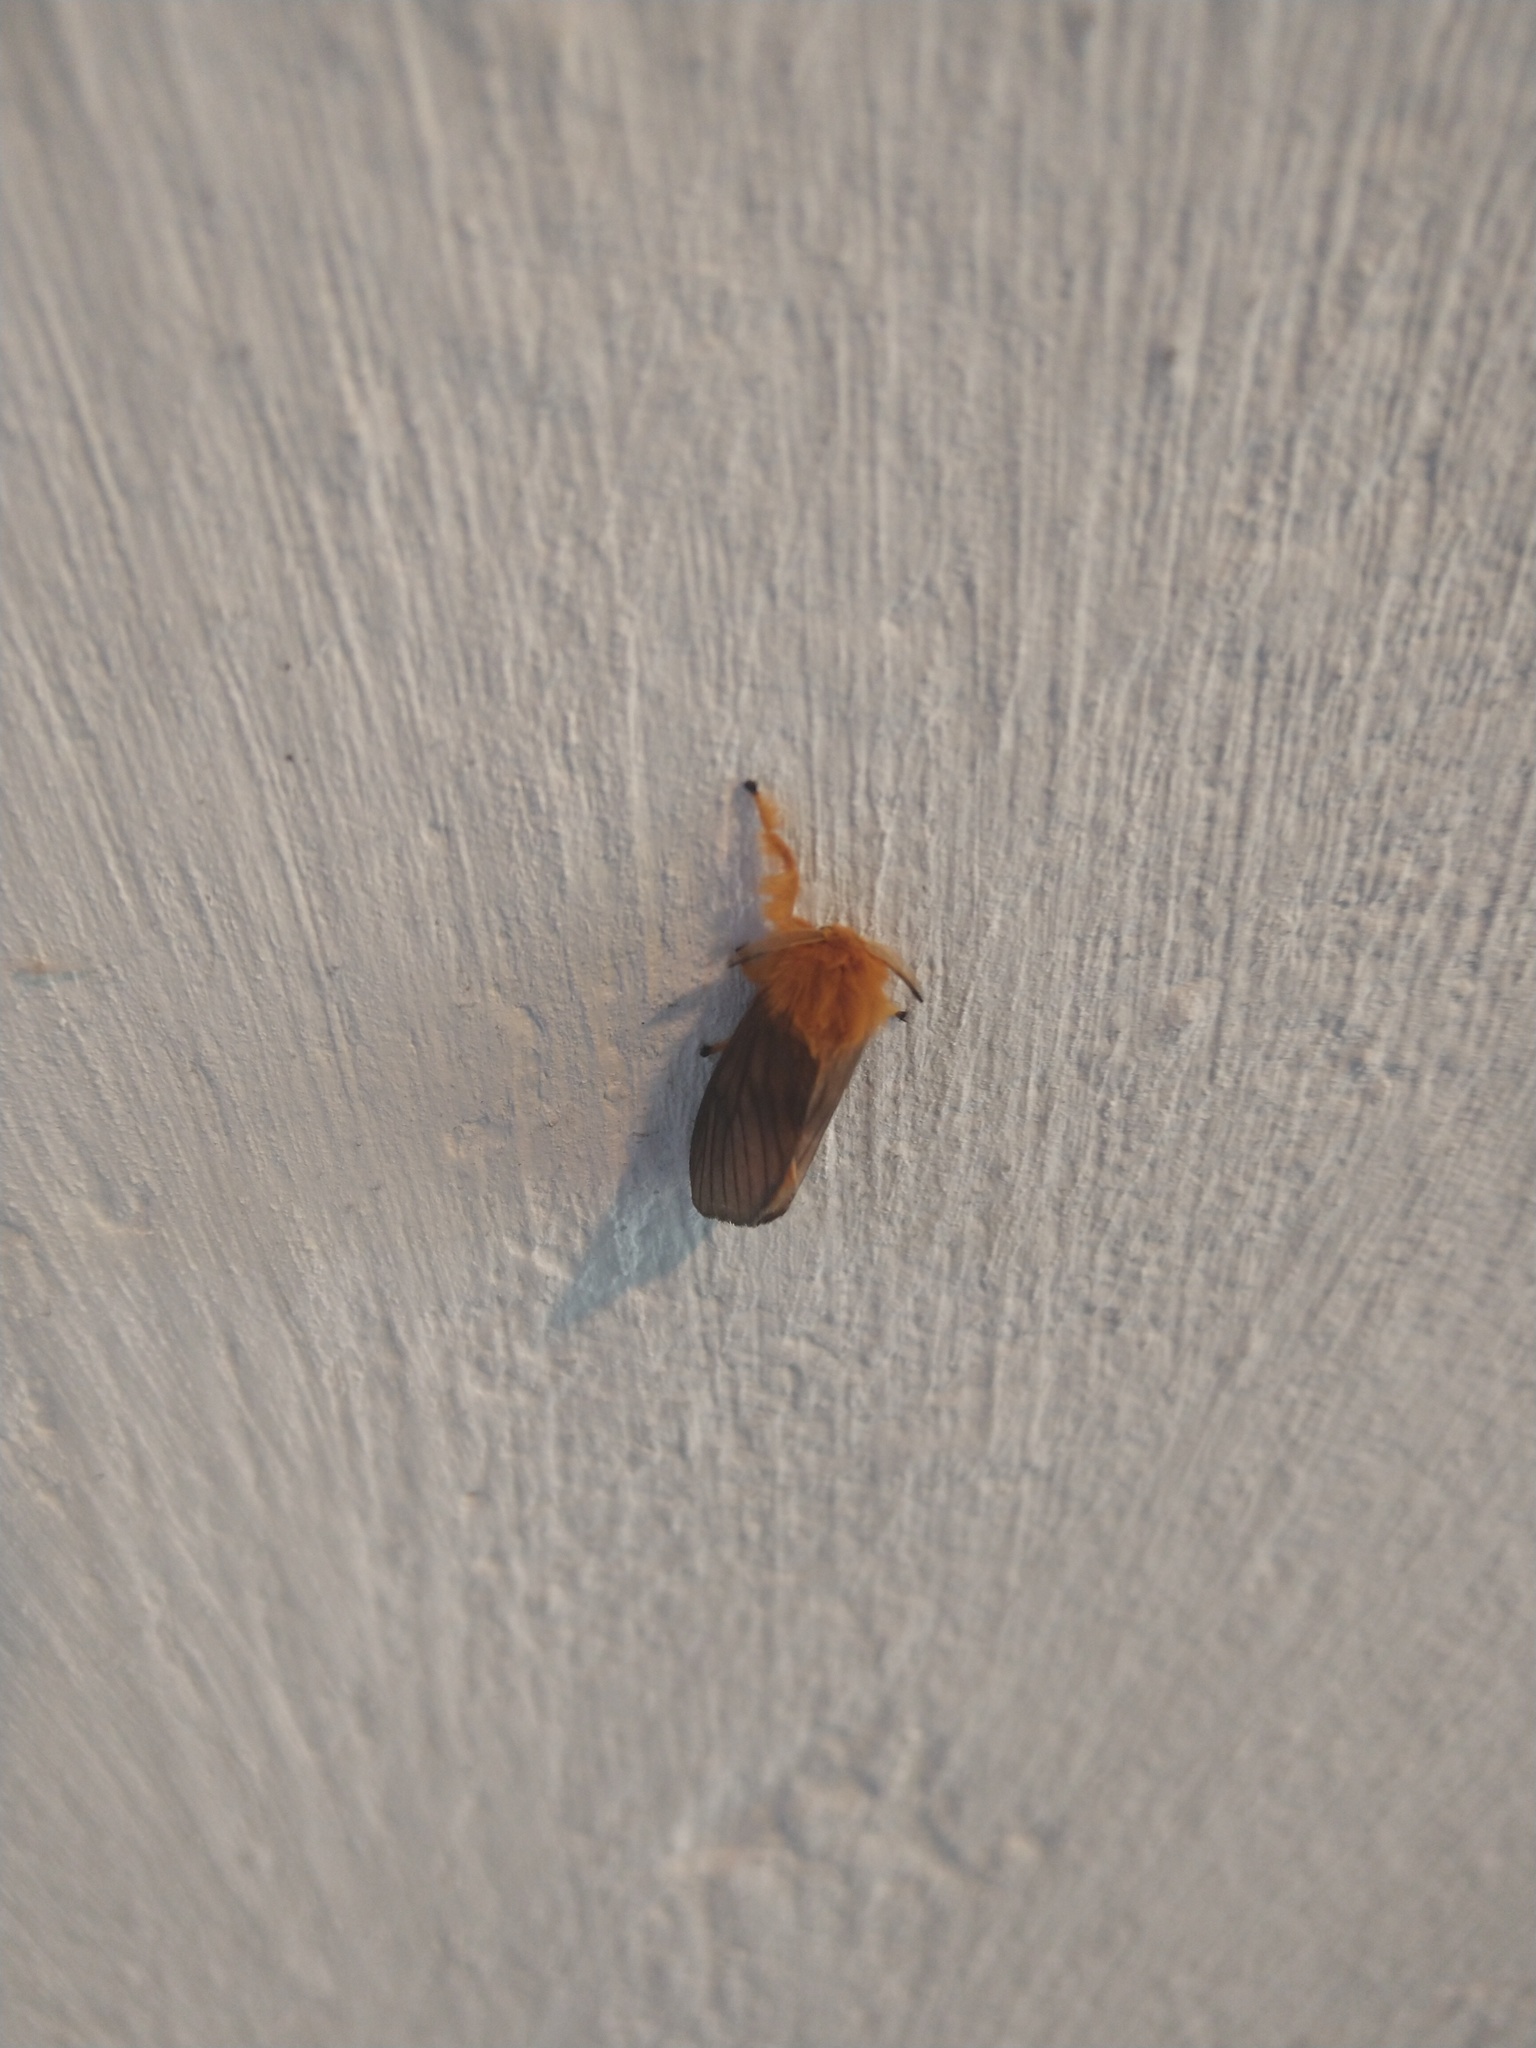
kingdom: Animalia
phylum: Arthropoda
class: Insecta
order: Lepidoptera
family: Megalopygidae
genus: Thoscora
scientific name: Thoscora acca
